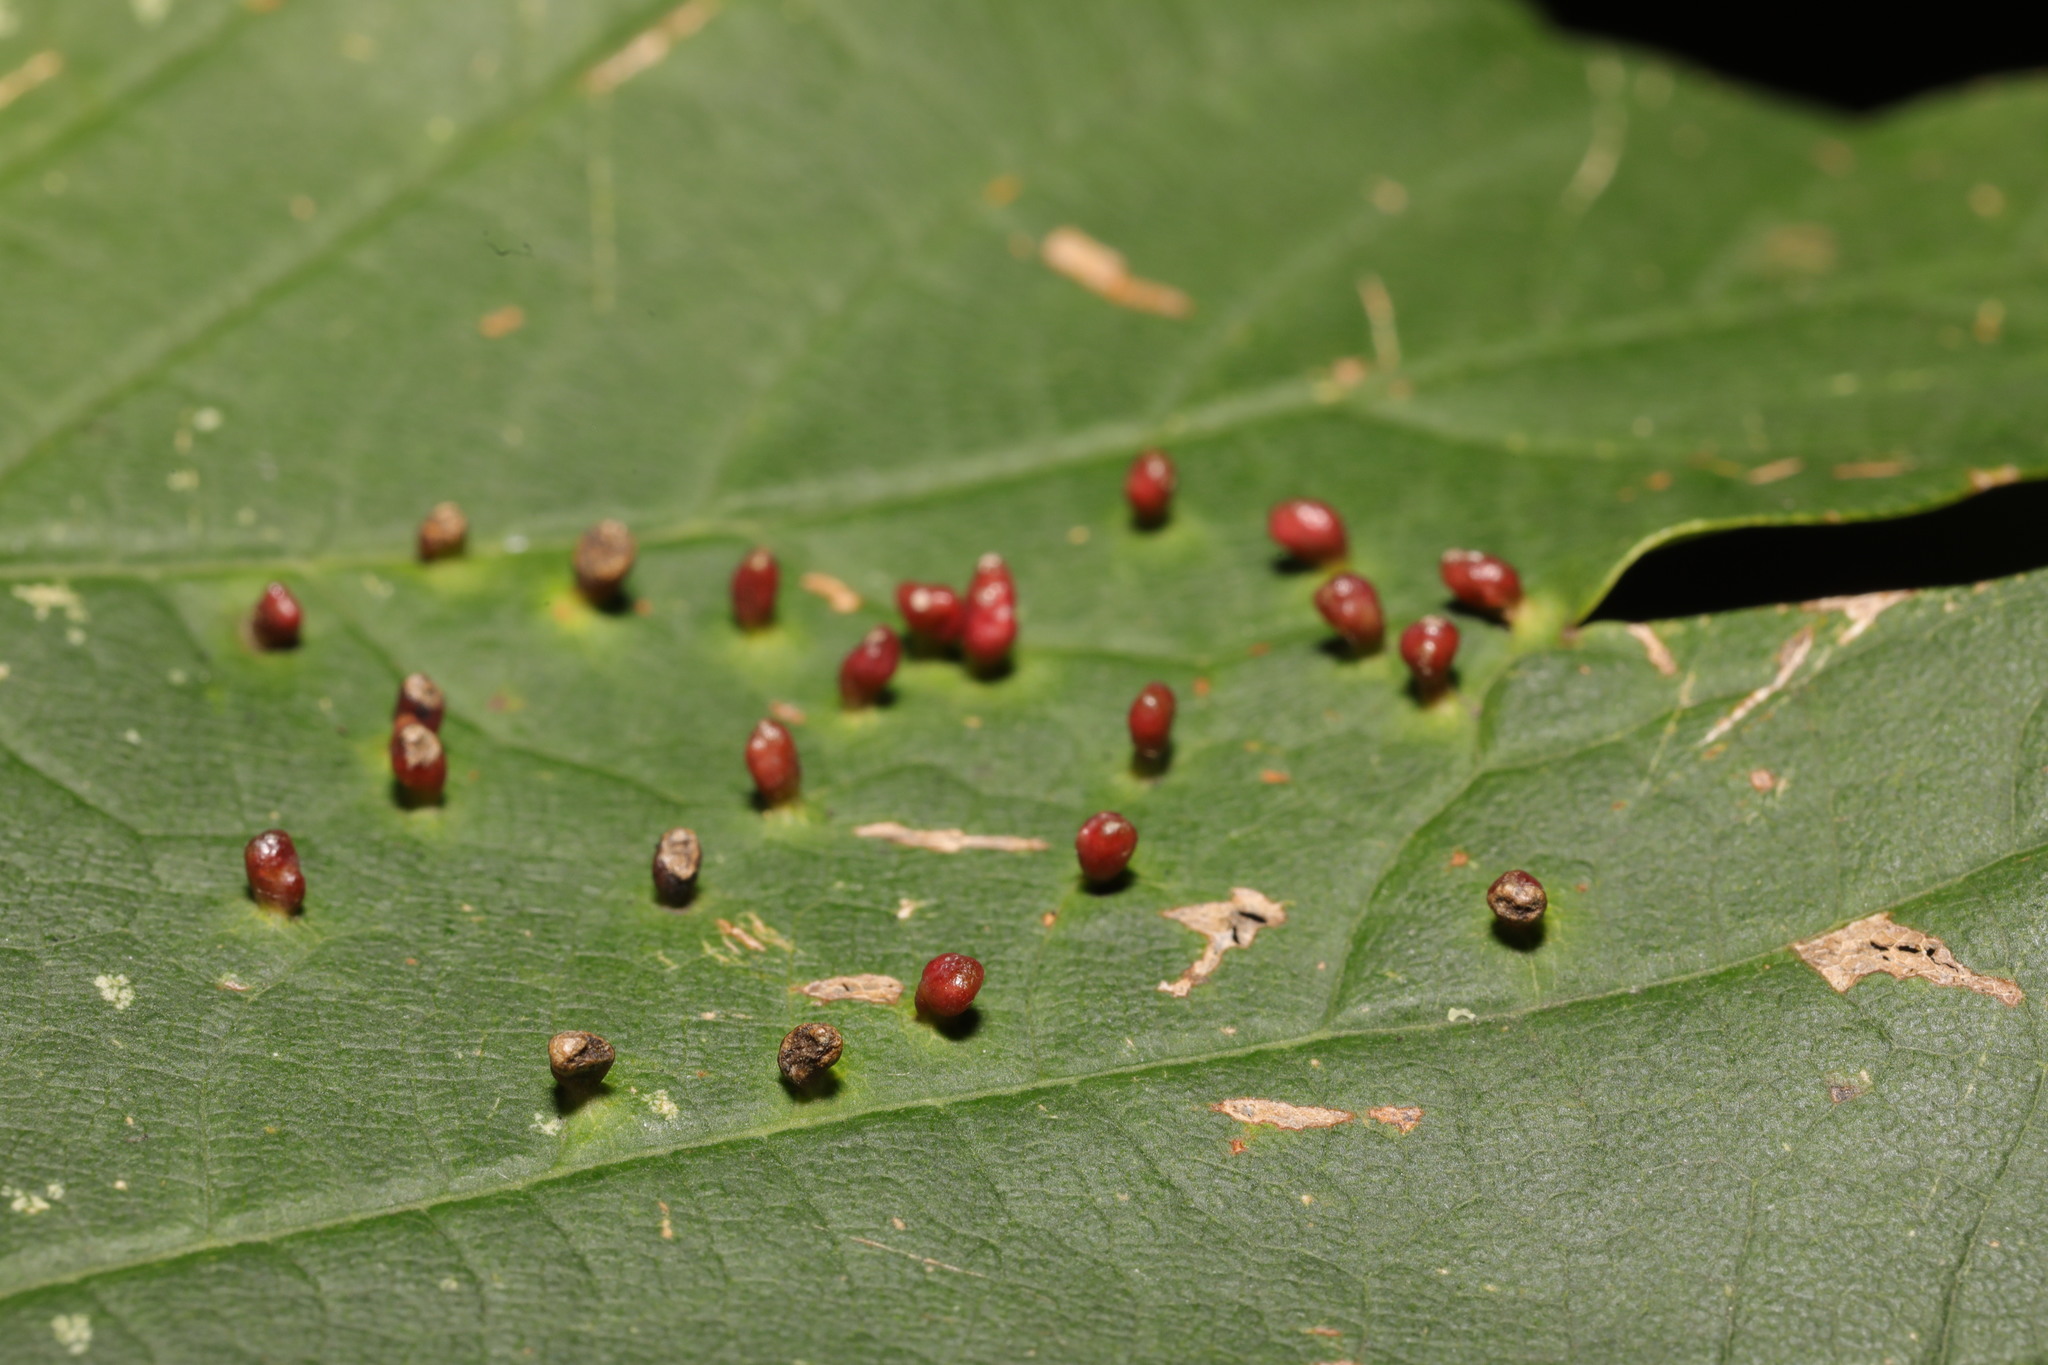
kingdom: Animalia
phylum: Arthropoda
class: Arachnida
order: Trombidiformes
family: Eriophyidae
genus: Aceria
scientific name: Aceria cephaloneus
